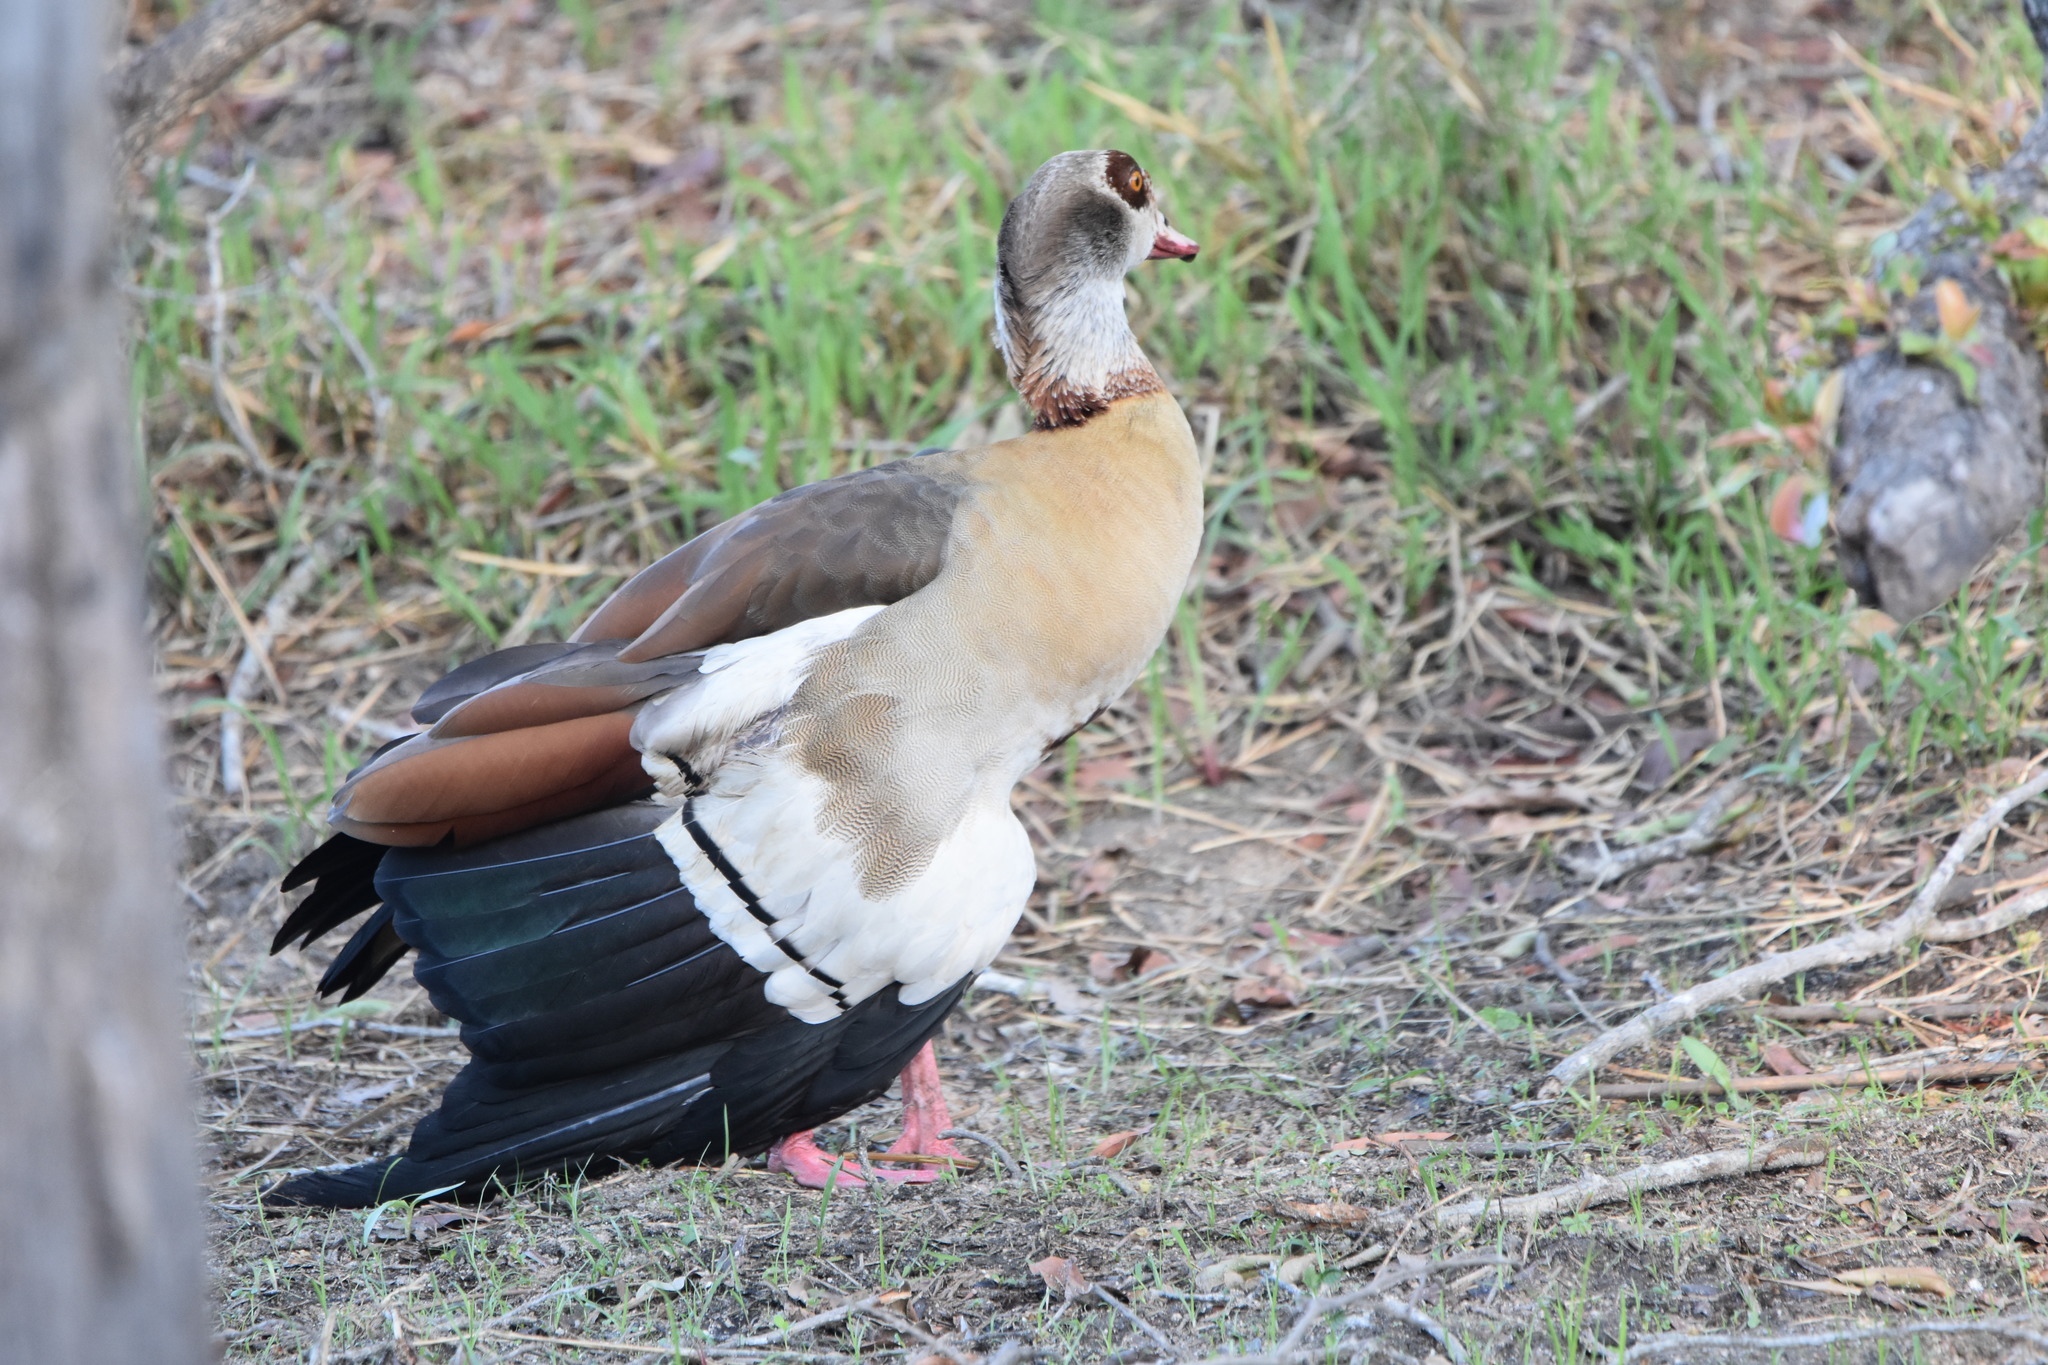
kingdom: Animalia
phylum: Chordata
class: Aves
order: Anseriformes
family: Anatidae
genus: Alopochen
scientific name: Alopochen aegyptiaca
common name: Egyptian goose
